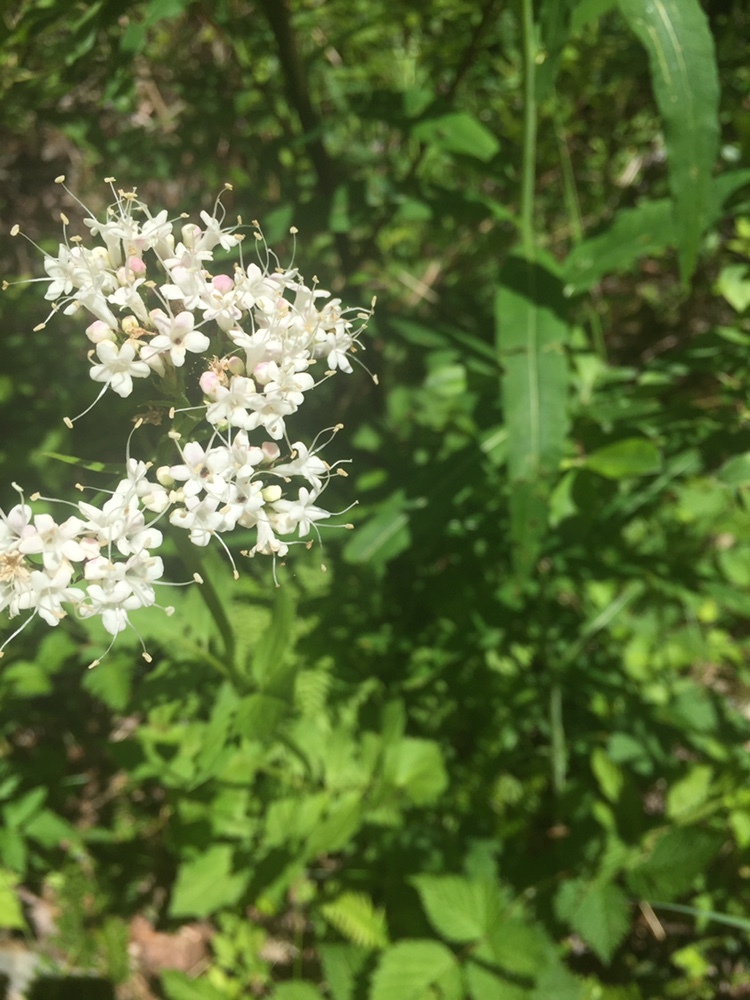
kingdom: Plantae
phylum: Tracheophyta
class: Magnoliopsida
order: Dipsacales
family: Caprifoliaceae
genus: Valeriana
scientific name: Valeriana sitchensis
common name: Pacific valerian
